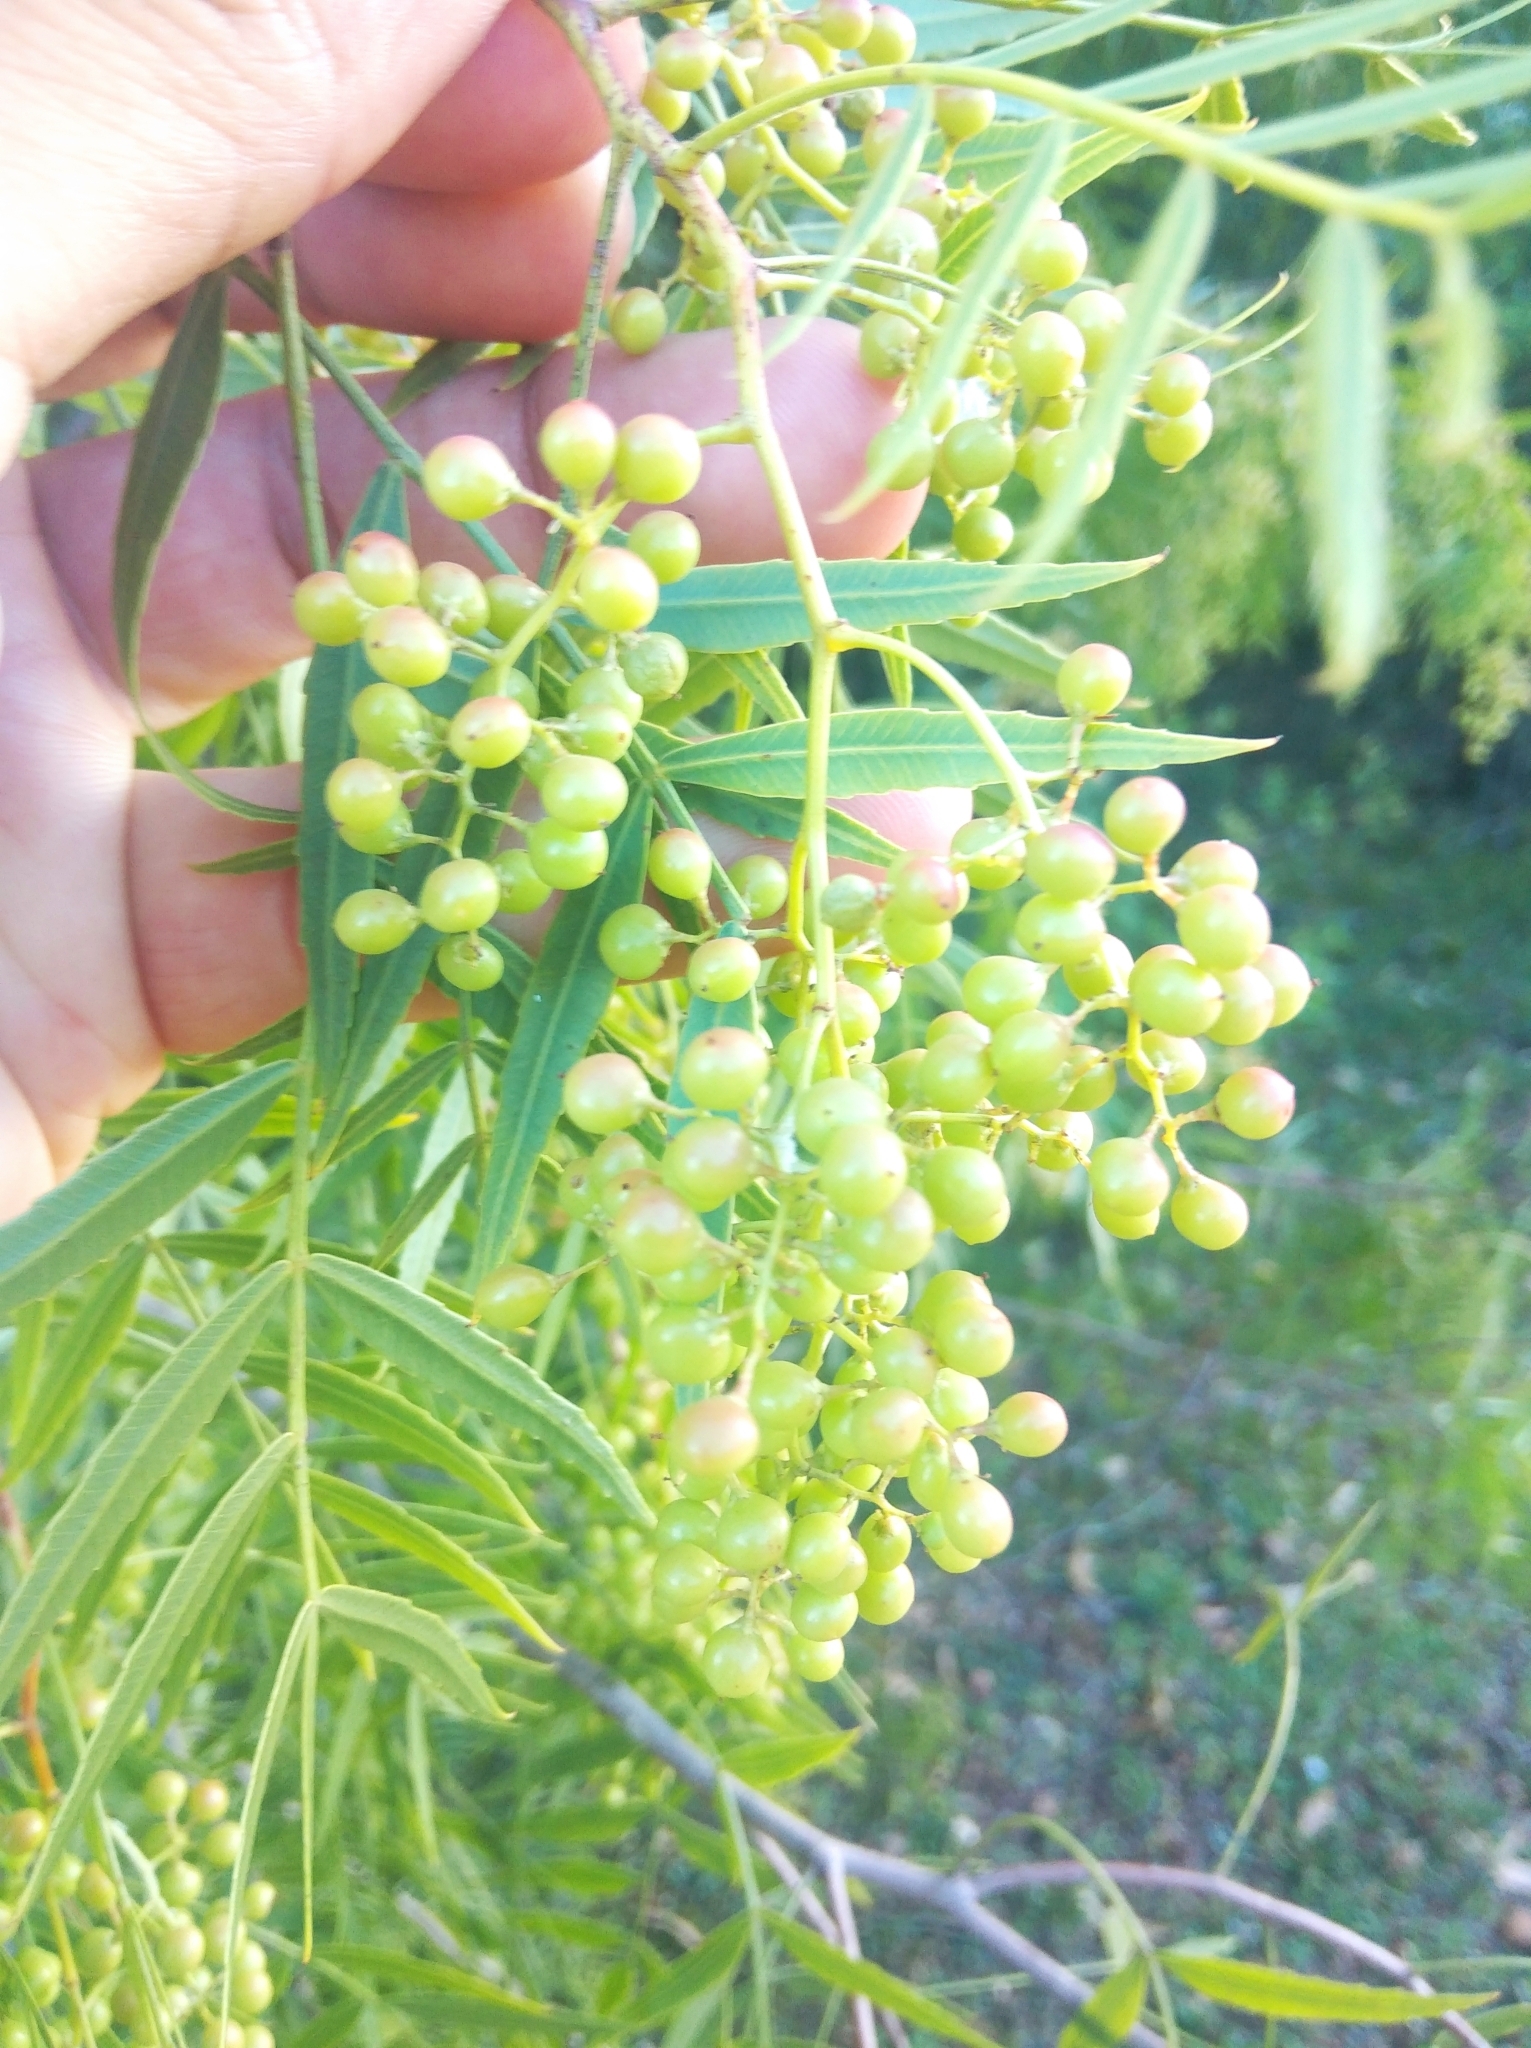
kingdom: Plantae
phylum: Tracheophyta
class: Magnoliopsida
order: Sapindales
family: Anacardiaceae
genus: Schinus
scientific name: Schinus molle
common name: Peruvian peppertree
